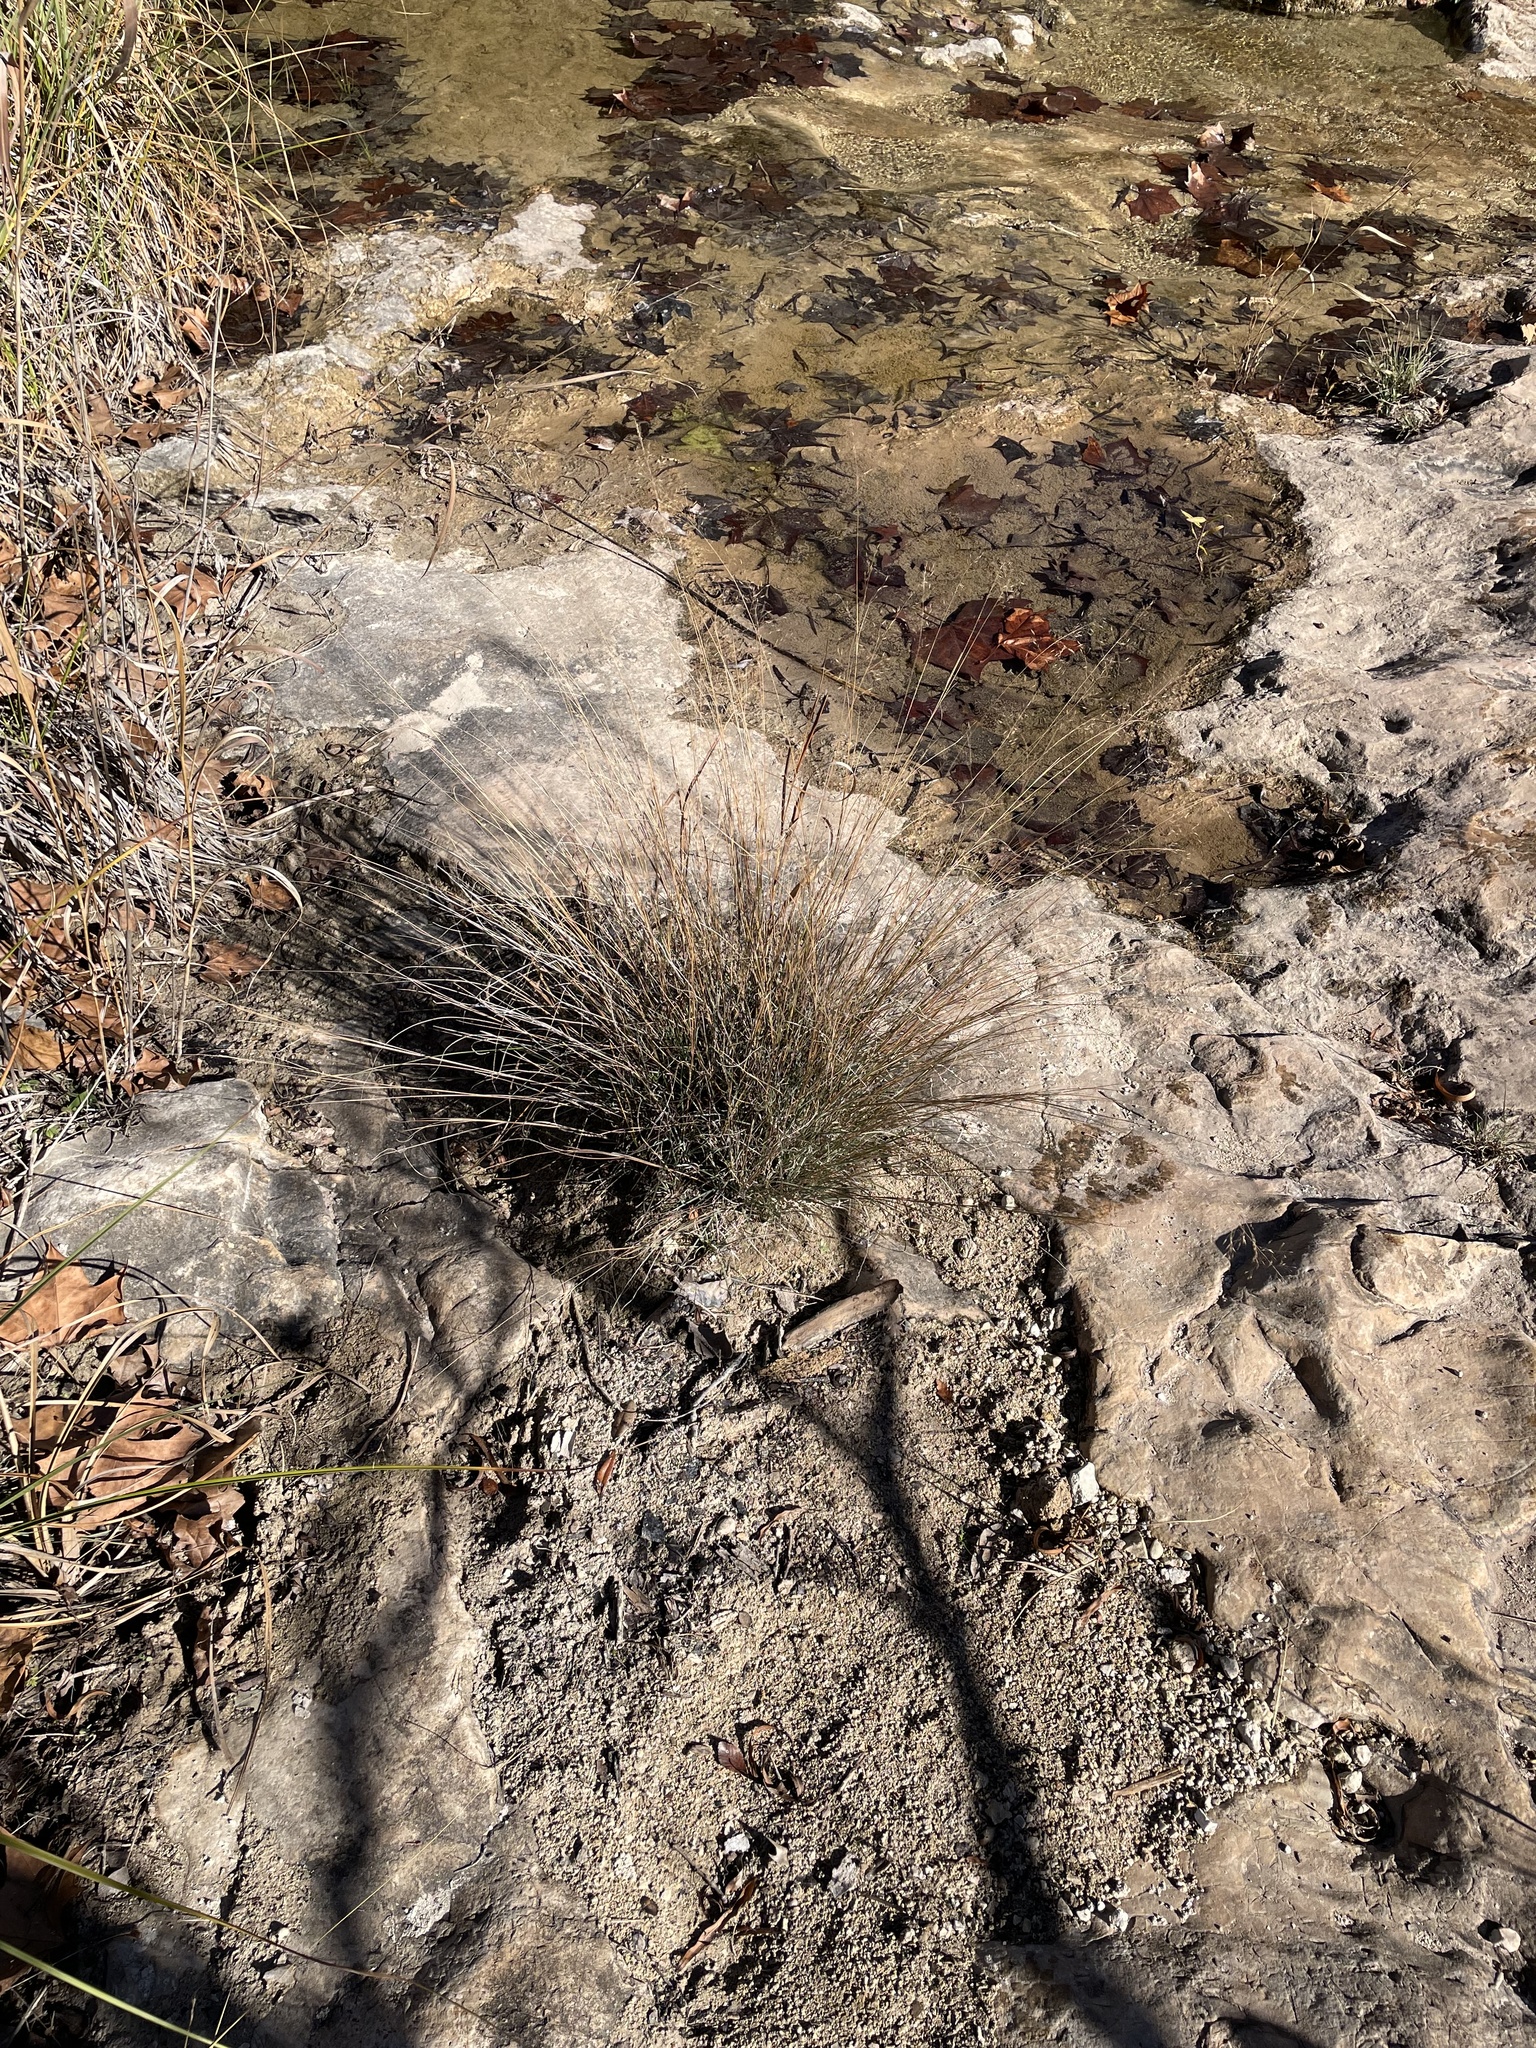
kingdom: Plantae
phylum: Tracheophyta
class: Liliopsida
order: Poales
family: Poaceae
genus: Muhlenbergia
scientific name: Muhlenbergia reverchonii
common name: Seep muhly
